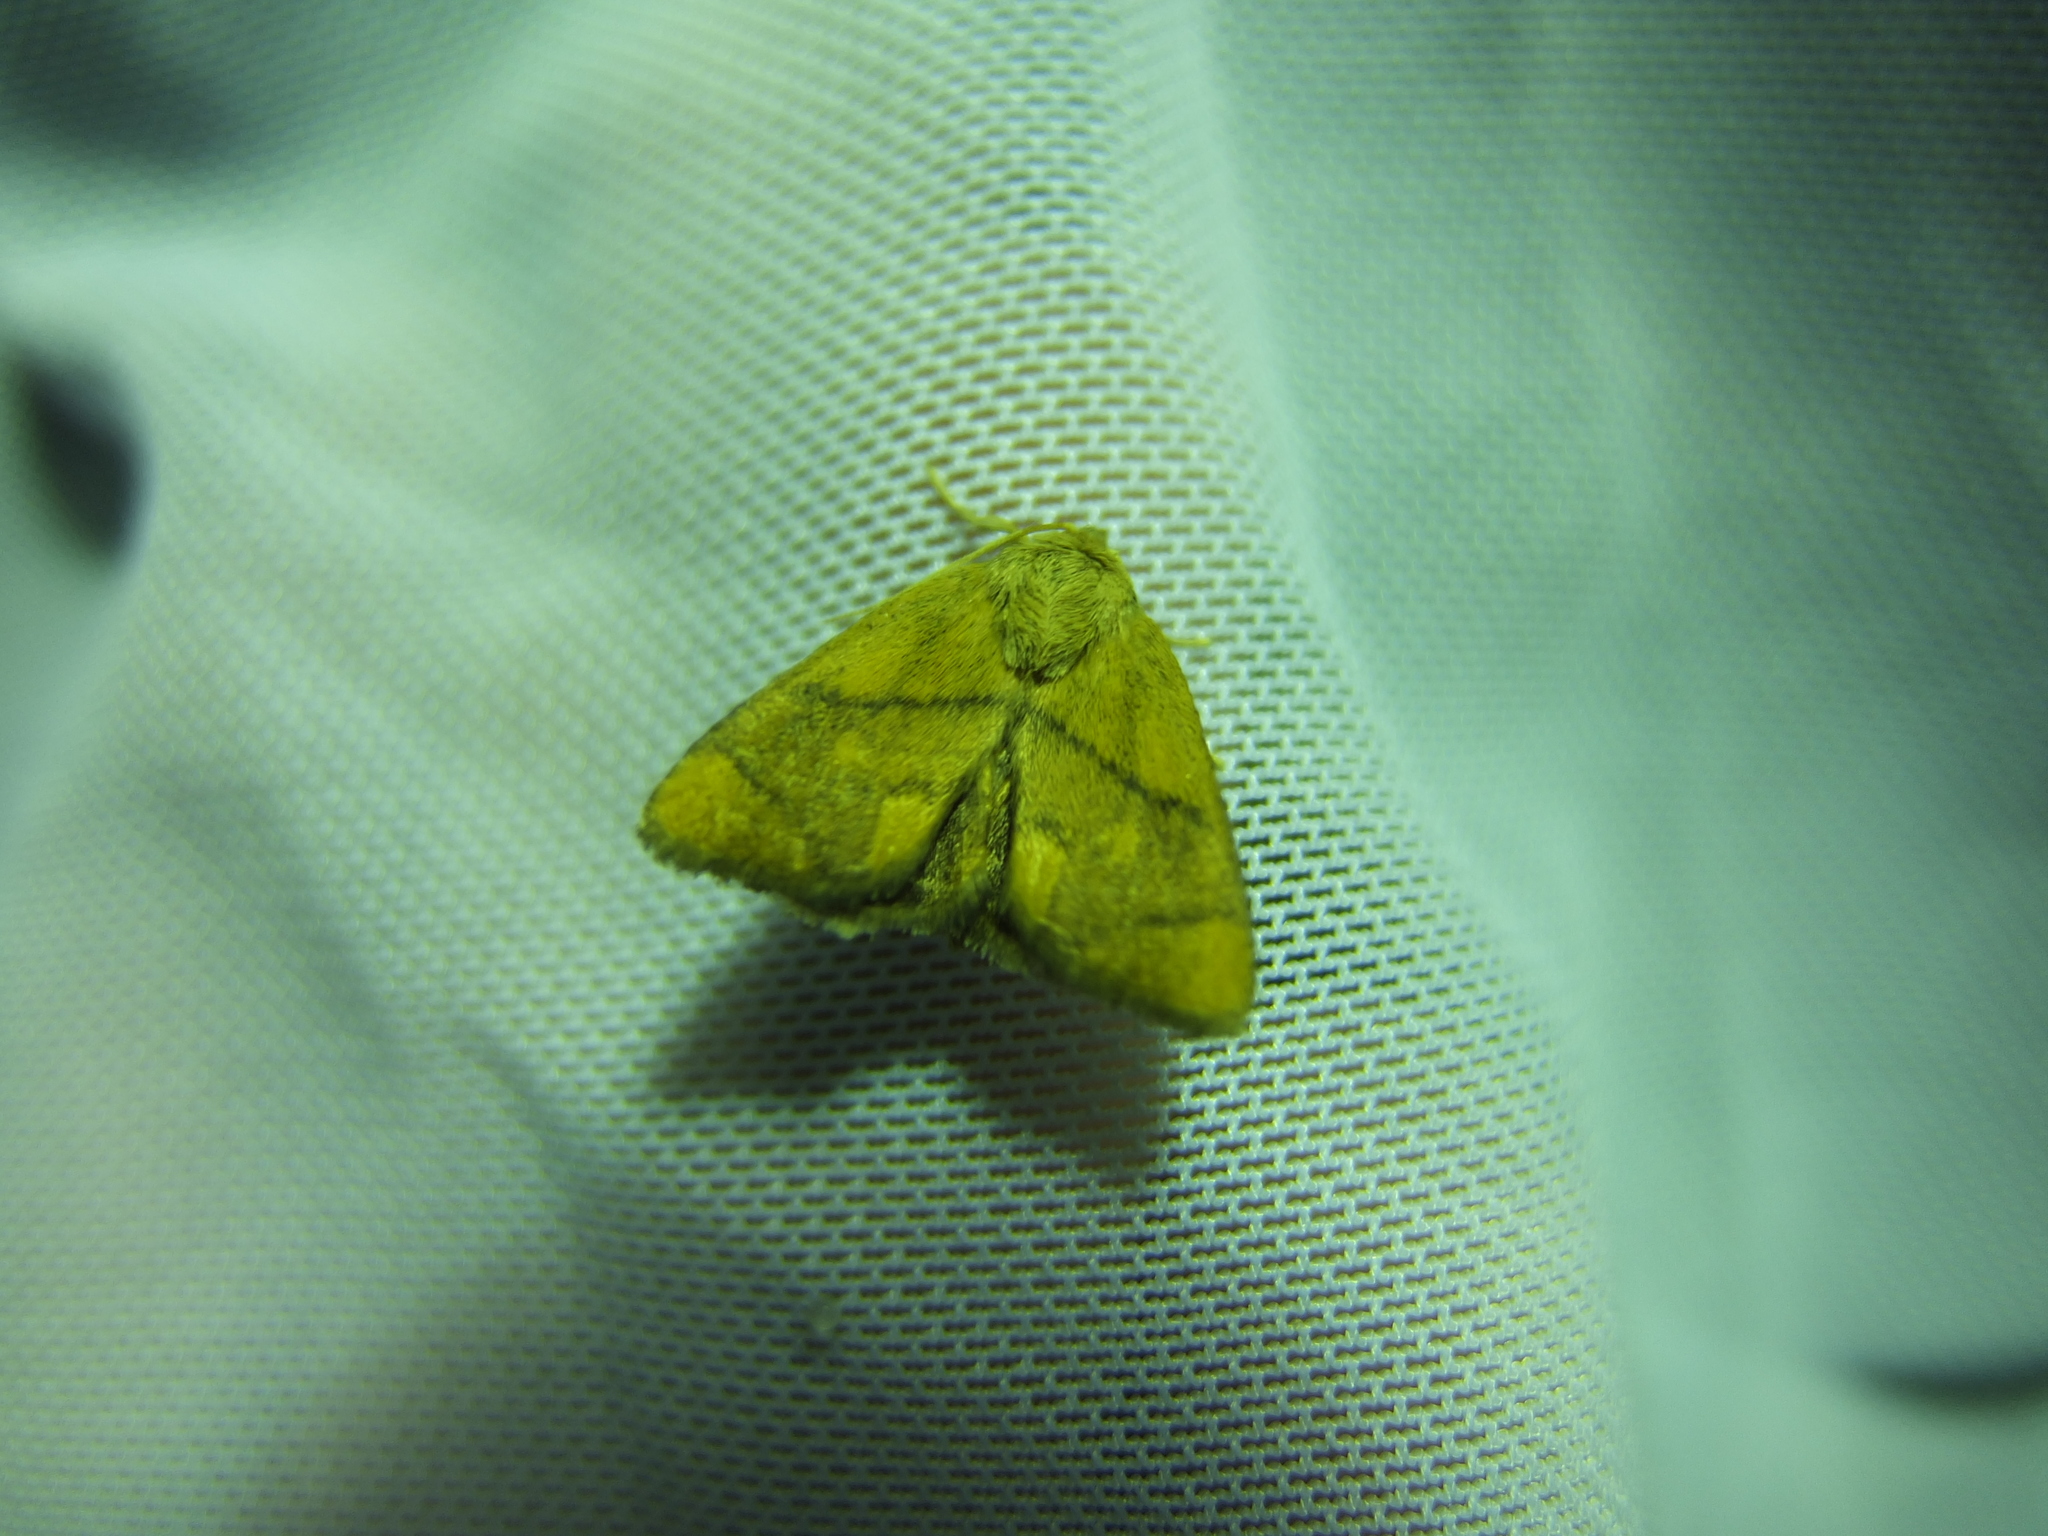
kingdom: Animalia
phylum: Arthropoda
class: Insecta
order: Lepidoptera
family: Limacodidae
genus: Apoda
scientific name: Apoda limacodes
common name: Festoon
